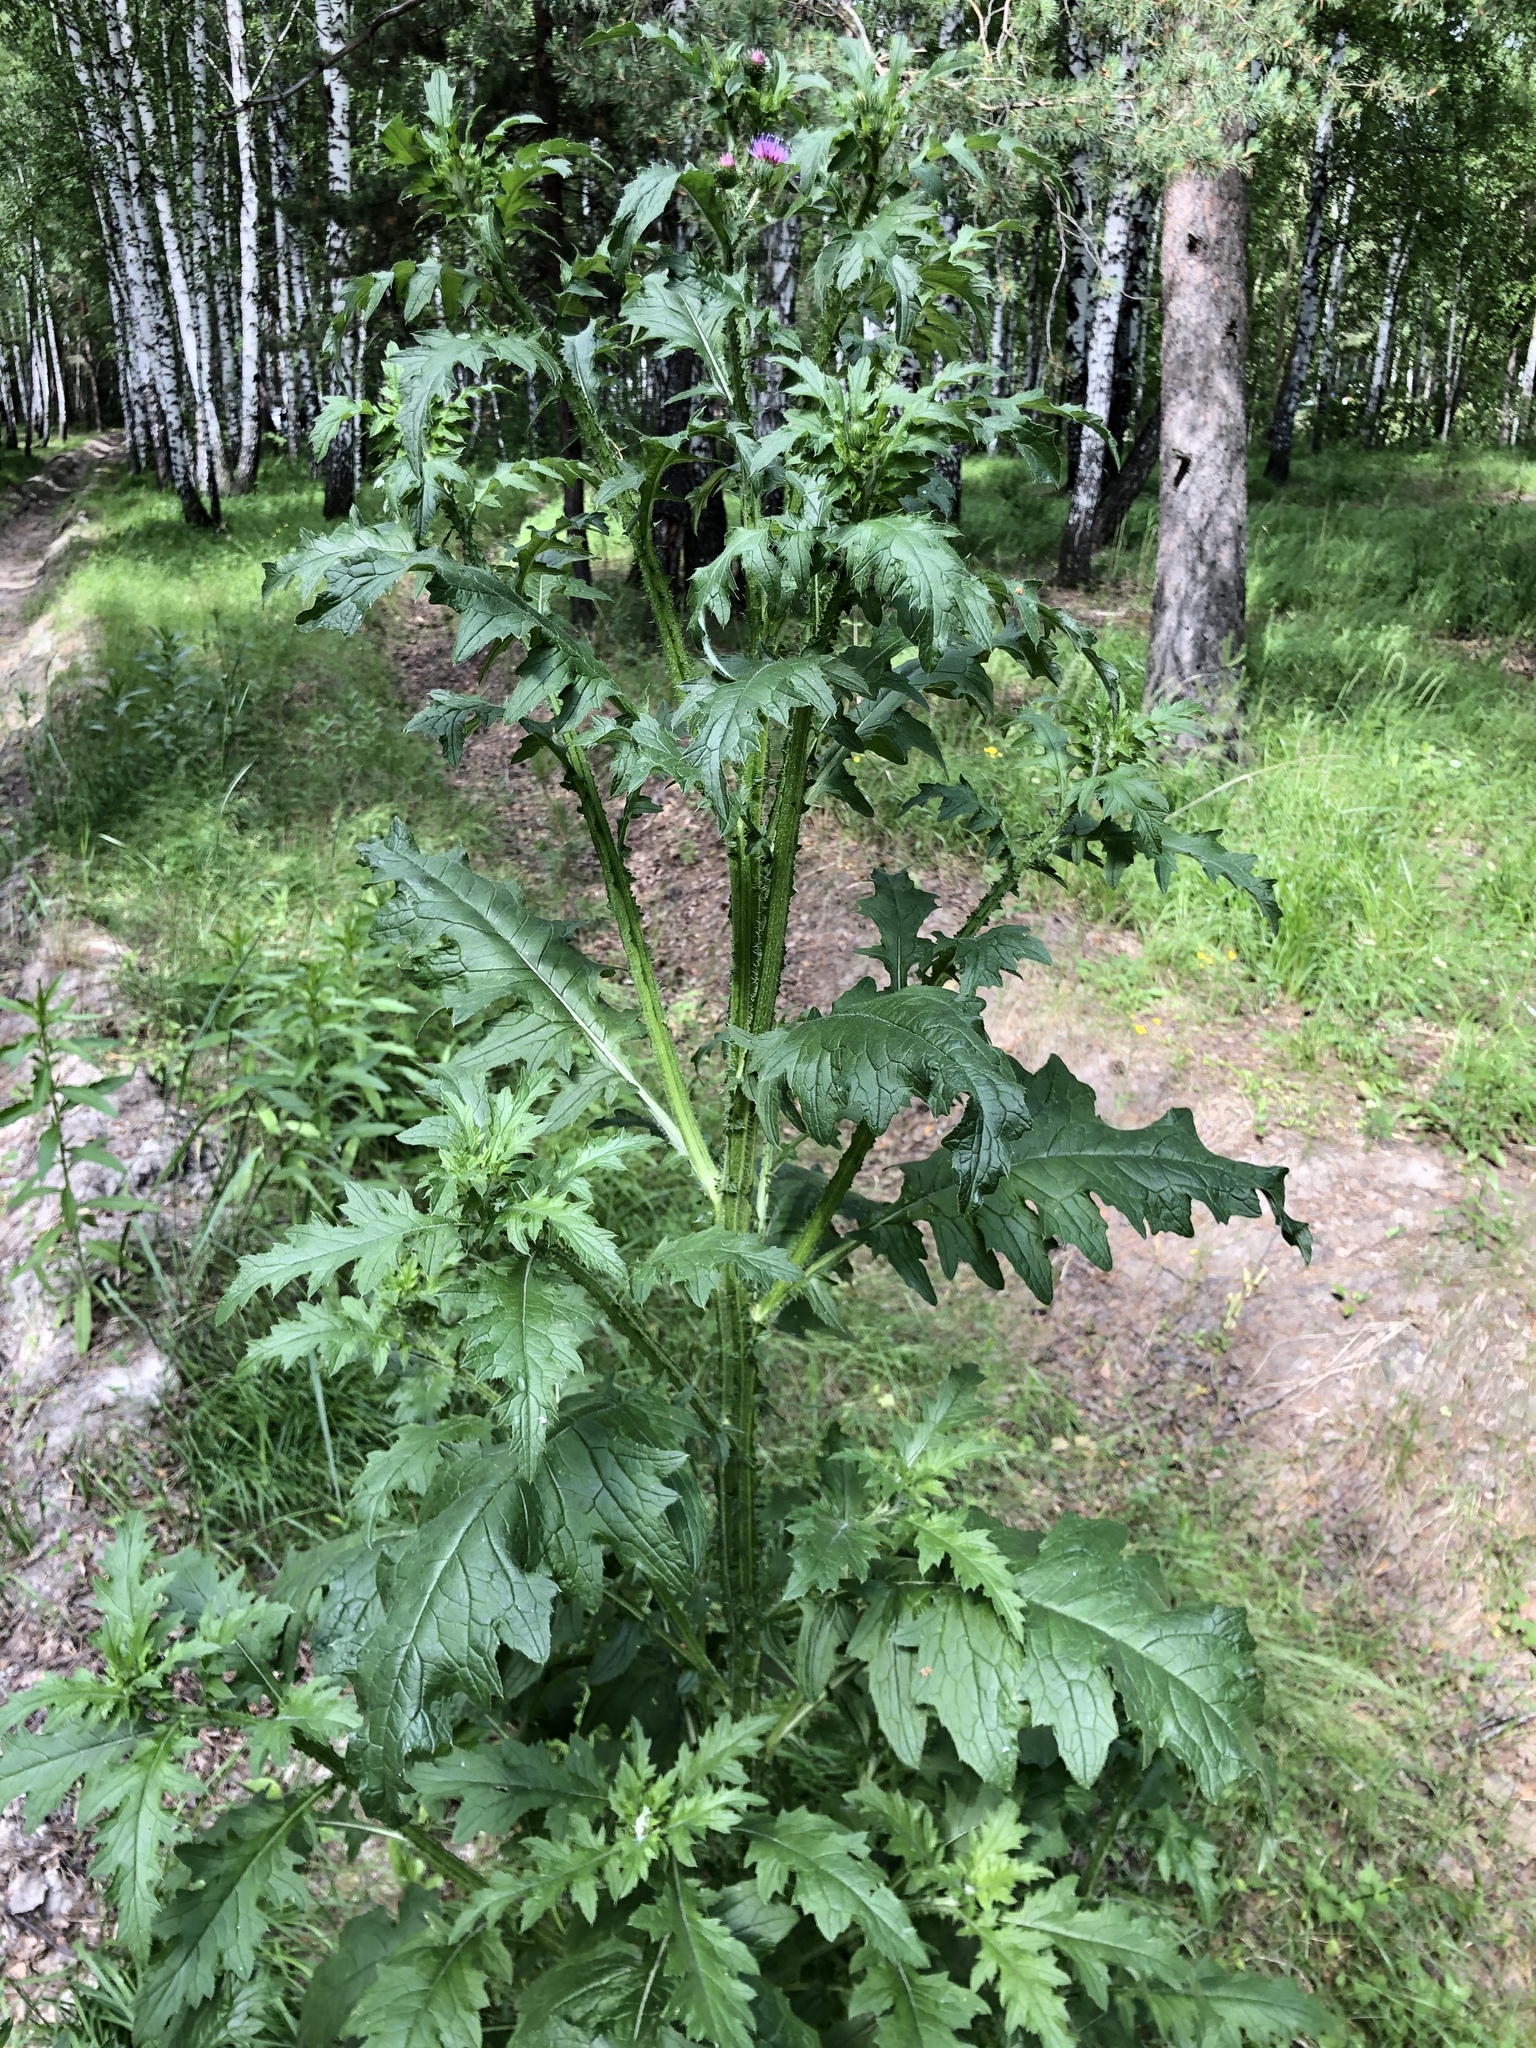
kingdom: Plantae
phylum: Tracheophyta
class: Magnoliopsida
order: Asterales
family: Asteraceae
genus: Carduus
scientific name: Carduus crispus
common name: Welted thistle
